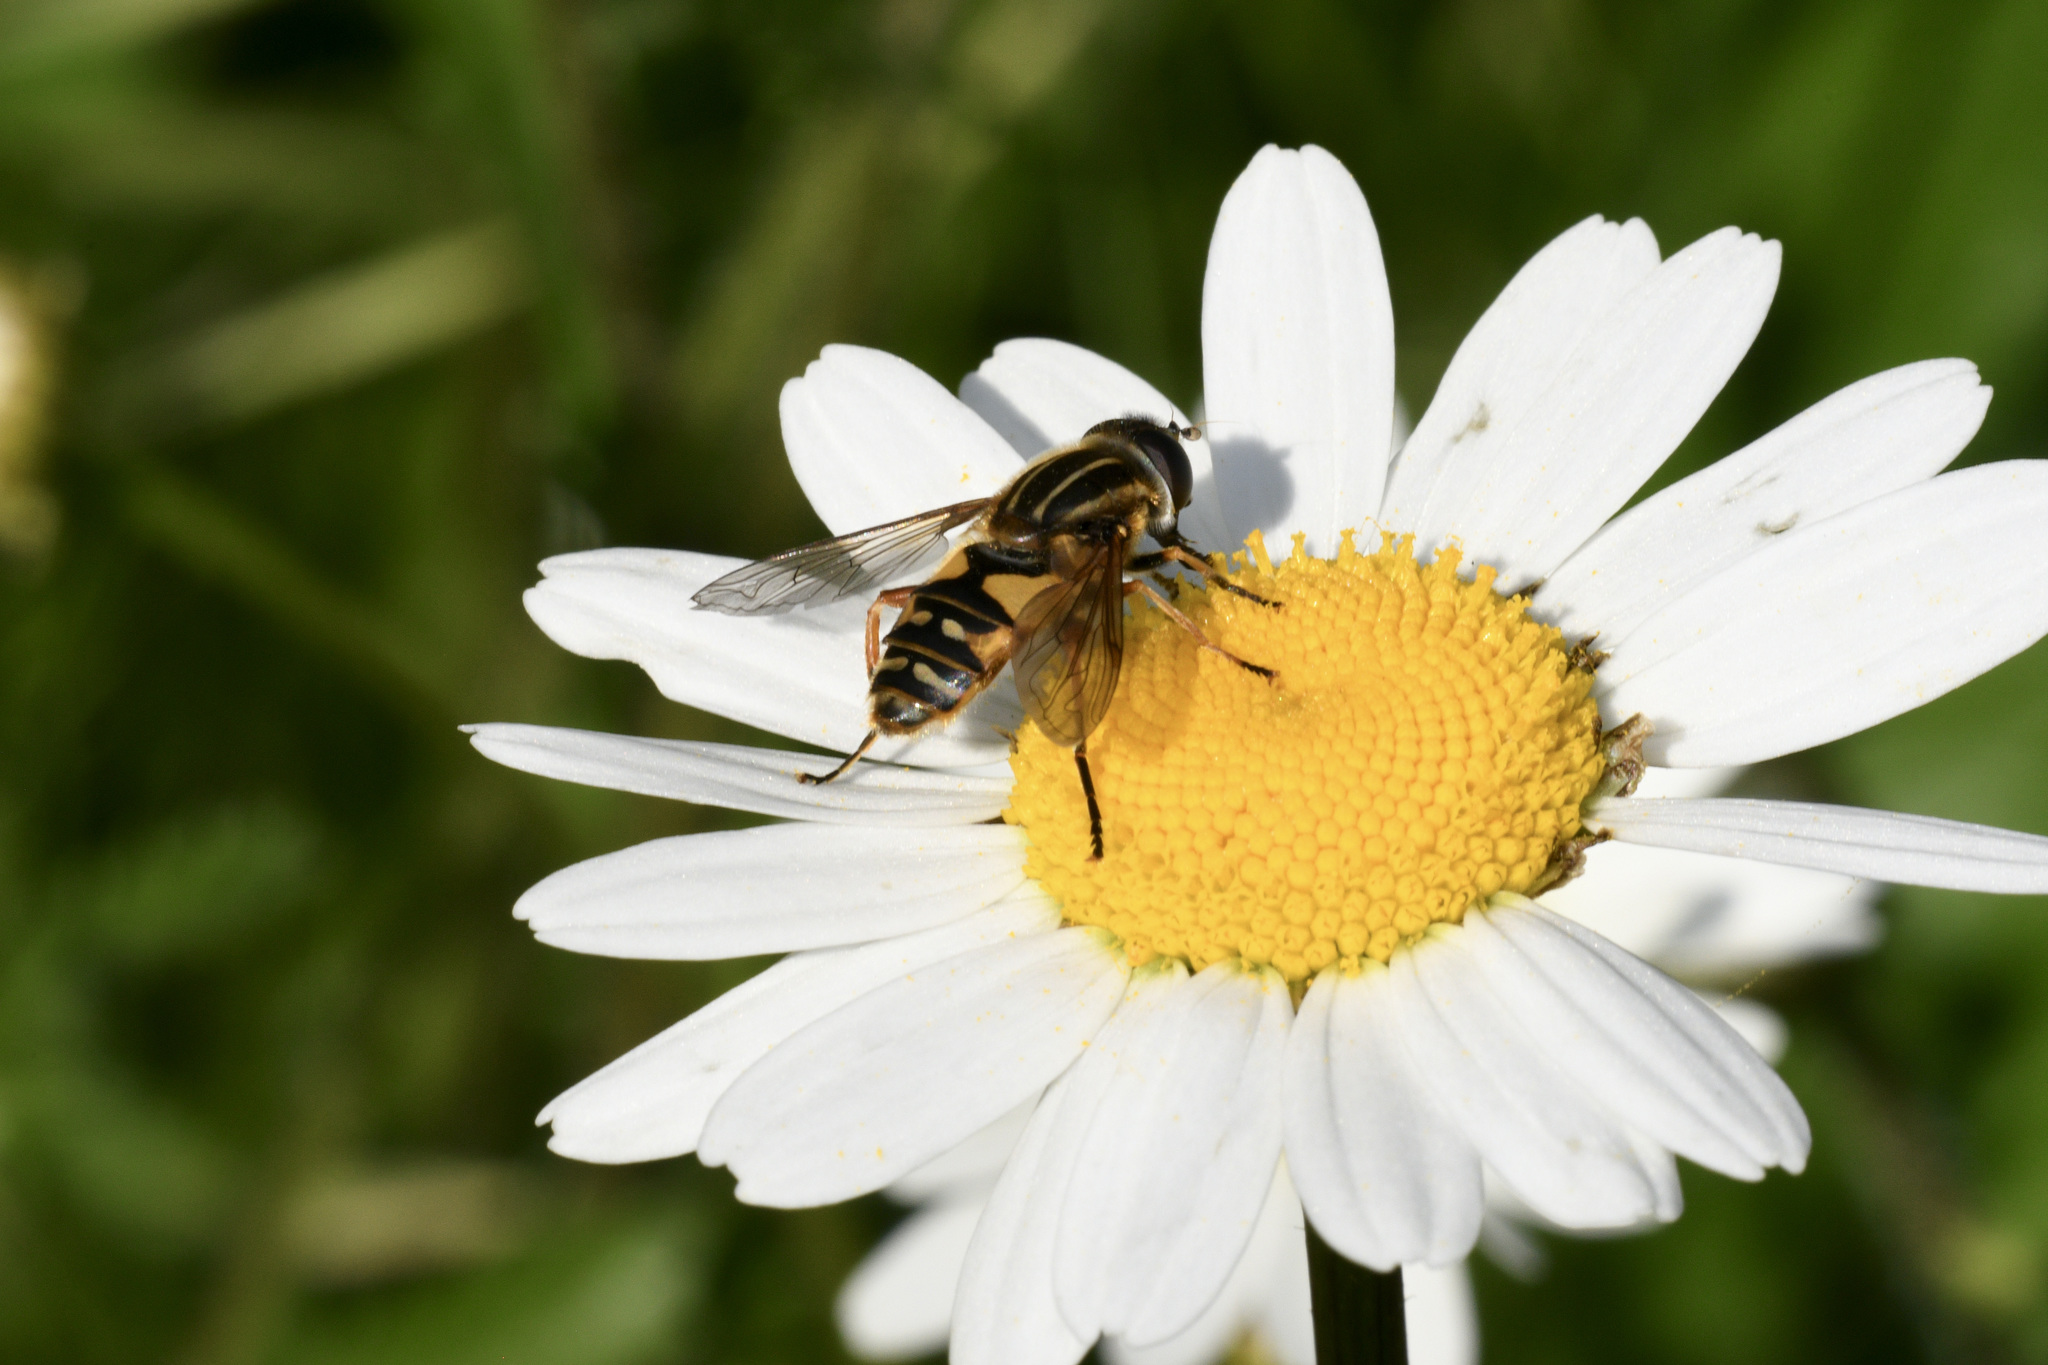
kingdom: Animalia
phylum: Arthropoda
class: Insecta
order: Diptera
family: Syrphidae
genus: Helophilus
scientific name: Helophilus pendulus
